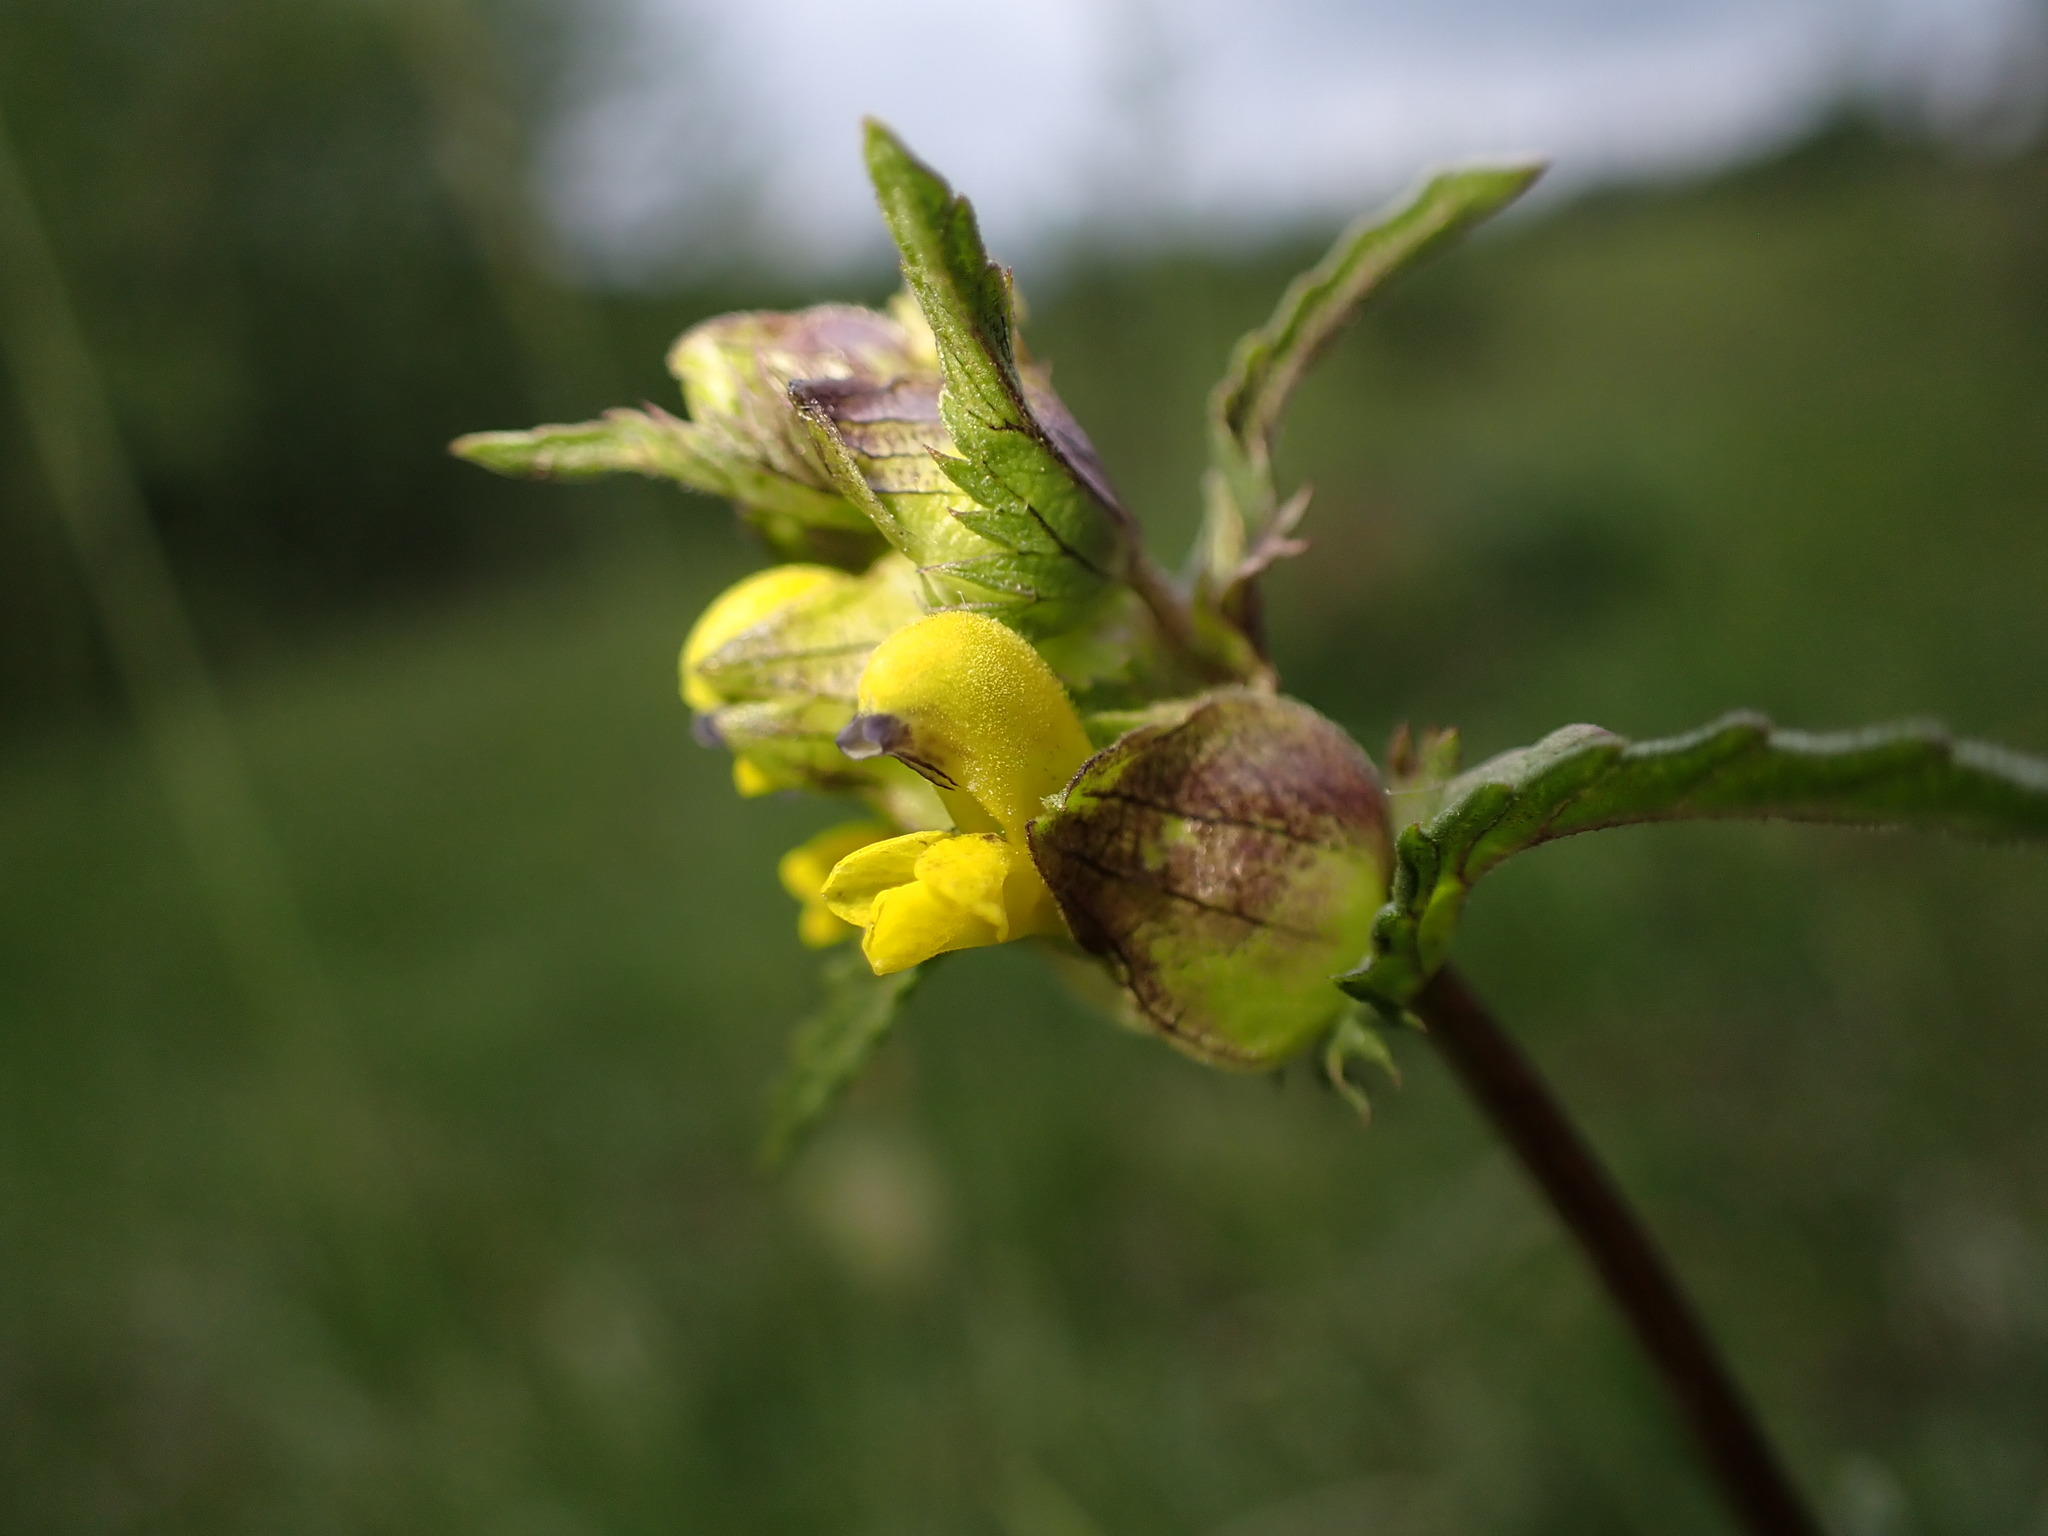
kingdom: Plantae
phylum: Tracheophyta
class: Magnoliopsida
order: Lamiales
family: Orobanchaceae
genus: Rhinanthus
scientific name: Rhinanthus minor
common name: Yellow-rattle
